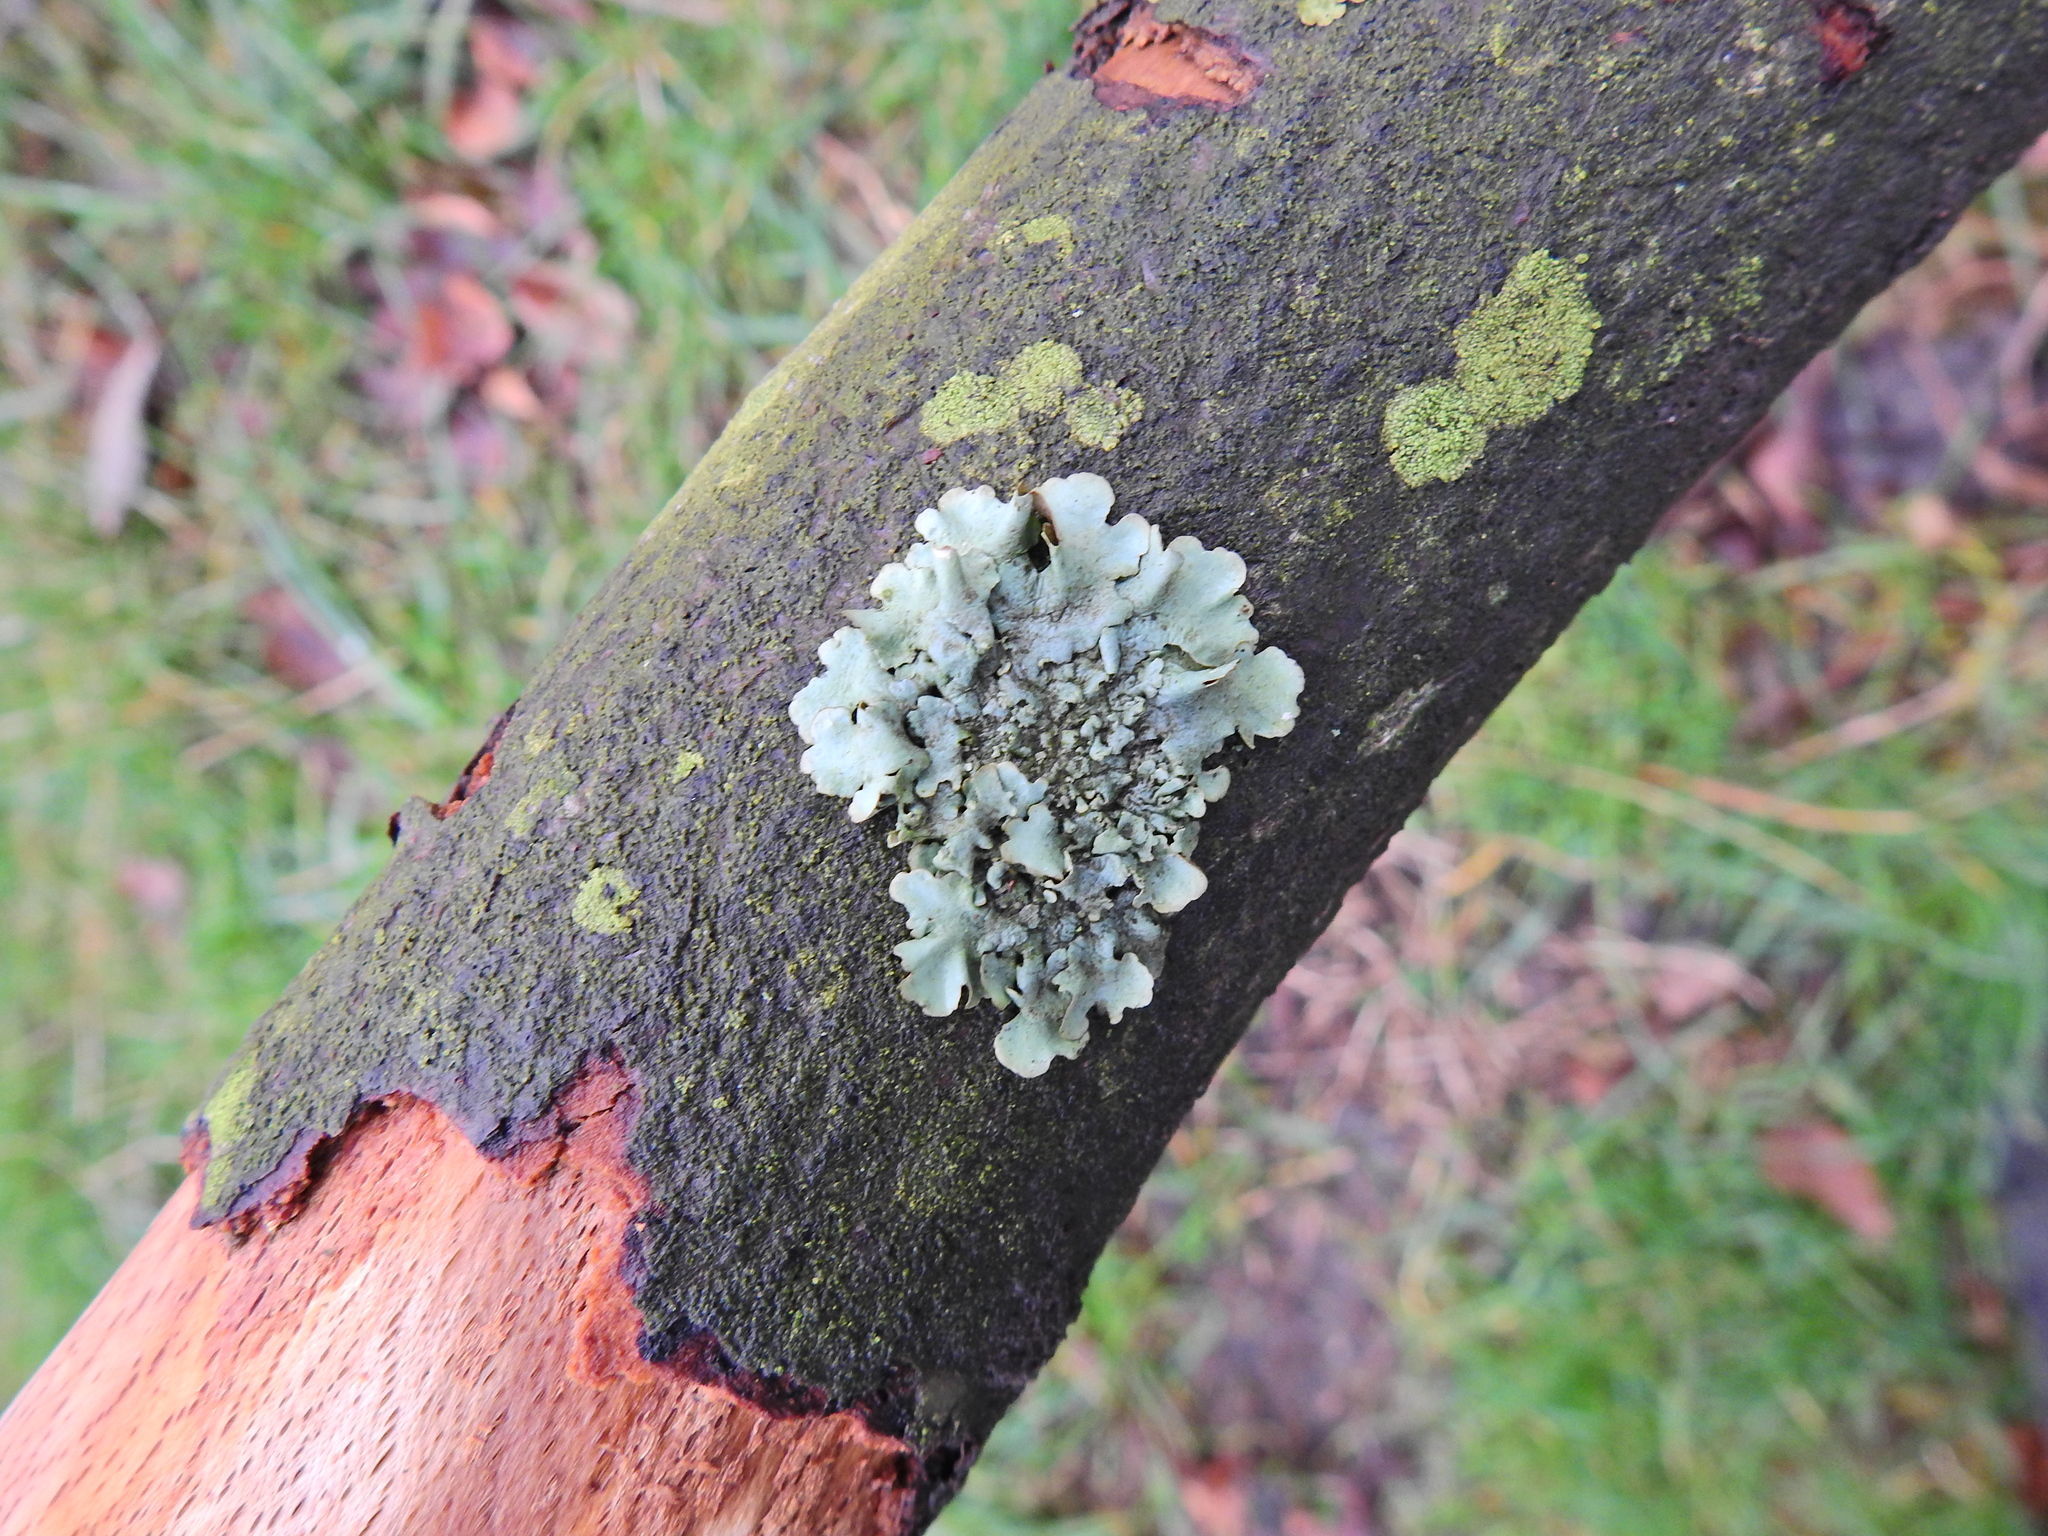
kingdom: Fungi
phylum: Ascomycota
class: Lecanoromycetes
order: Lecanorales
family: Parmeliaceae
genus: Flavoparmelia
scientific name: Flavoparmelia caperata
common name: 40-mile per hour lichen
